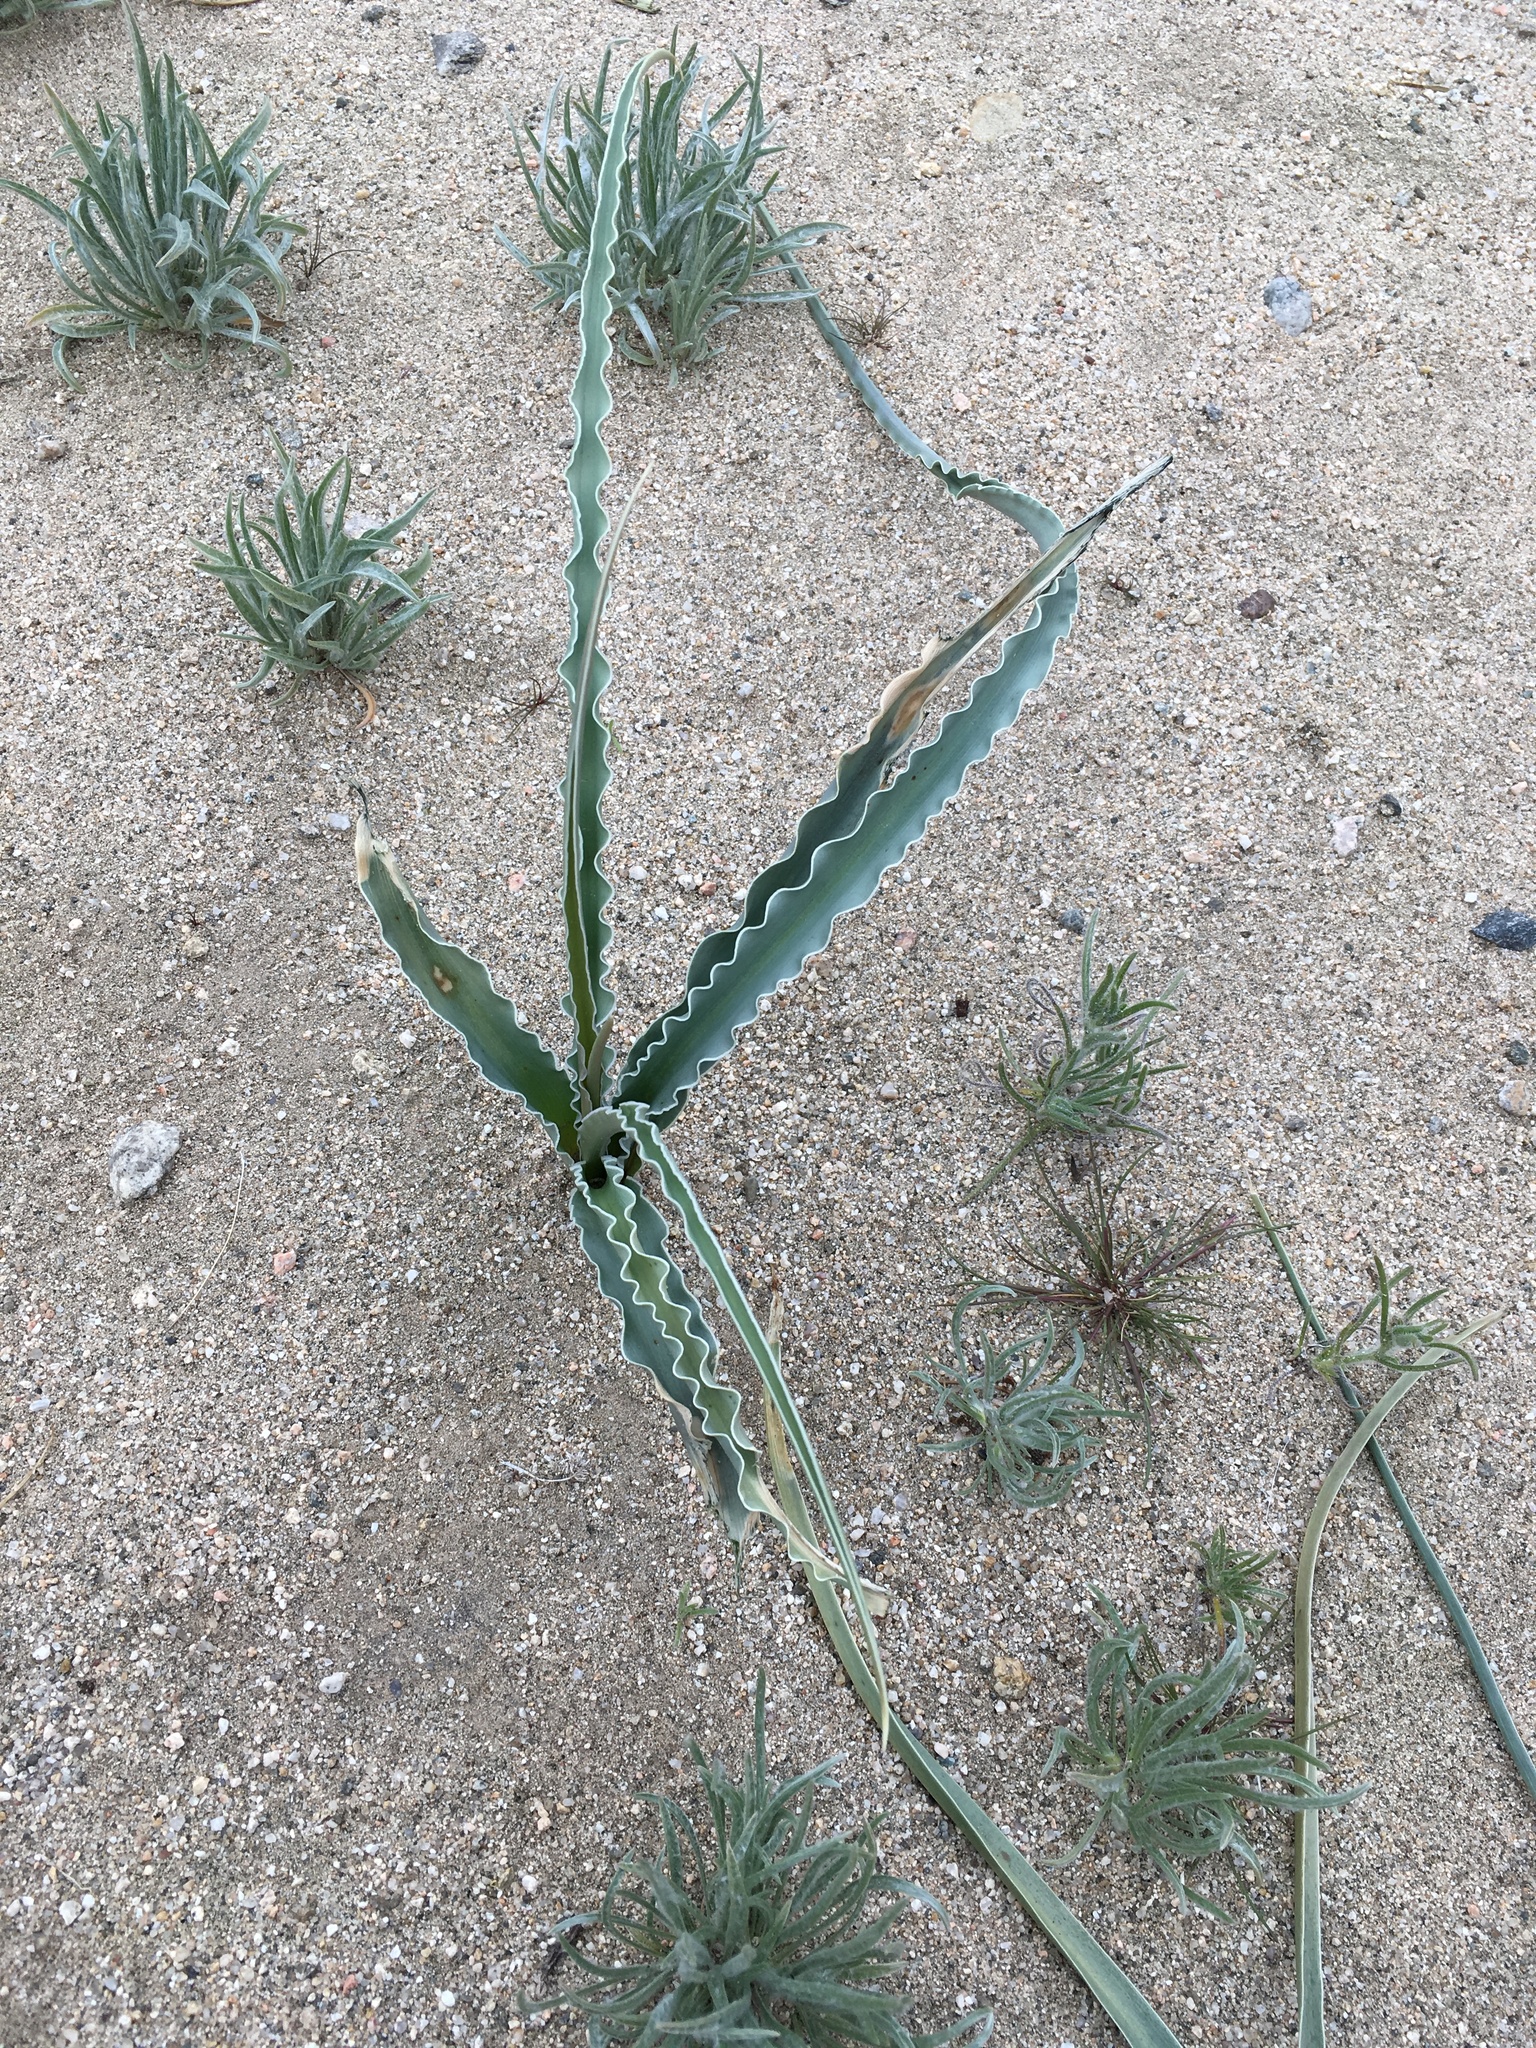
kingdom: Plantae
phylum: Tracheophyta
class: Liliopsida
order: Asparagales
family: Asparagaceae
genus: Hesperocallis
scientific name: Hesperocallis undulata
